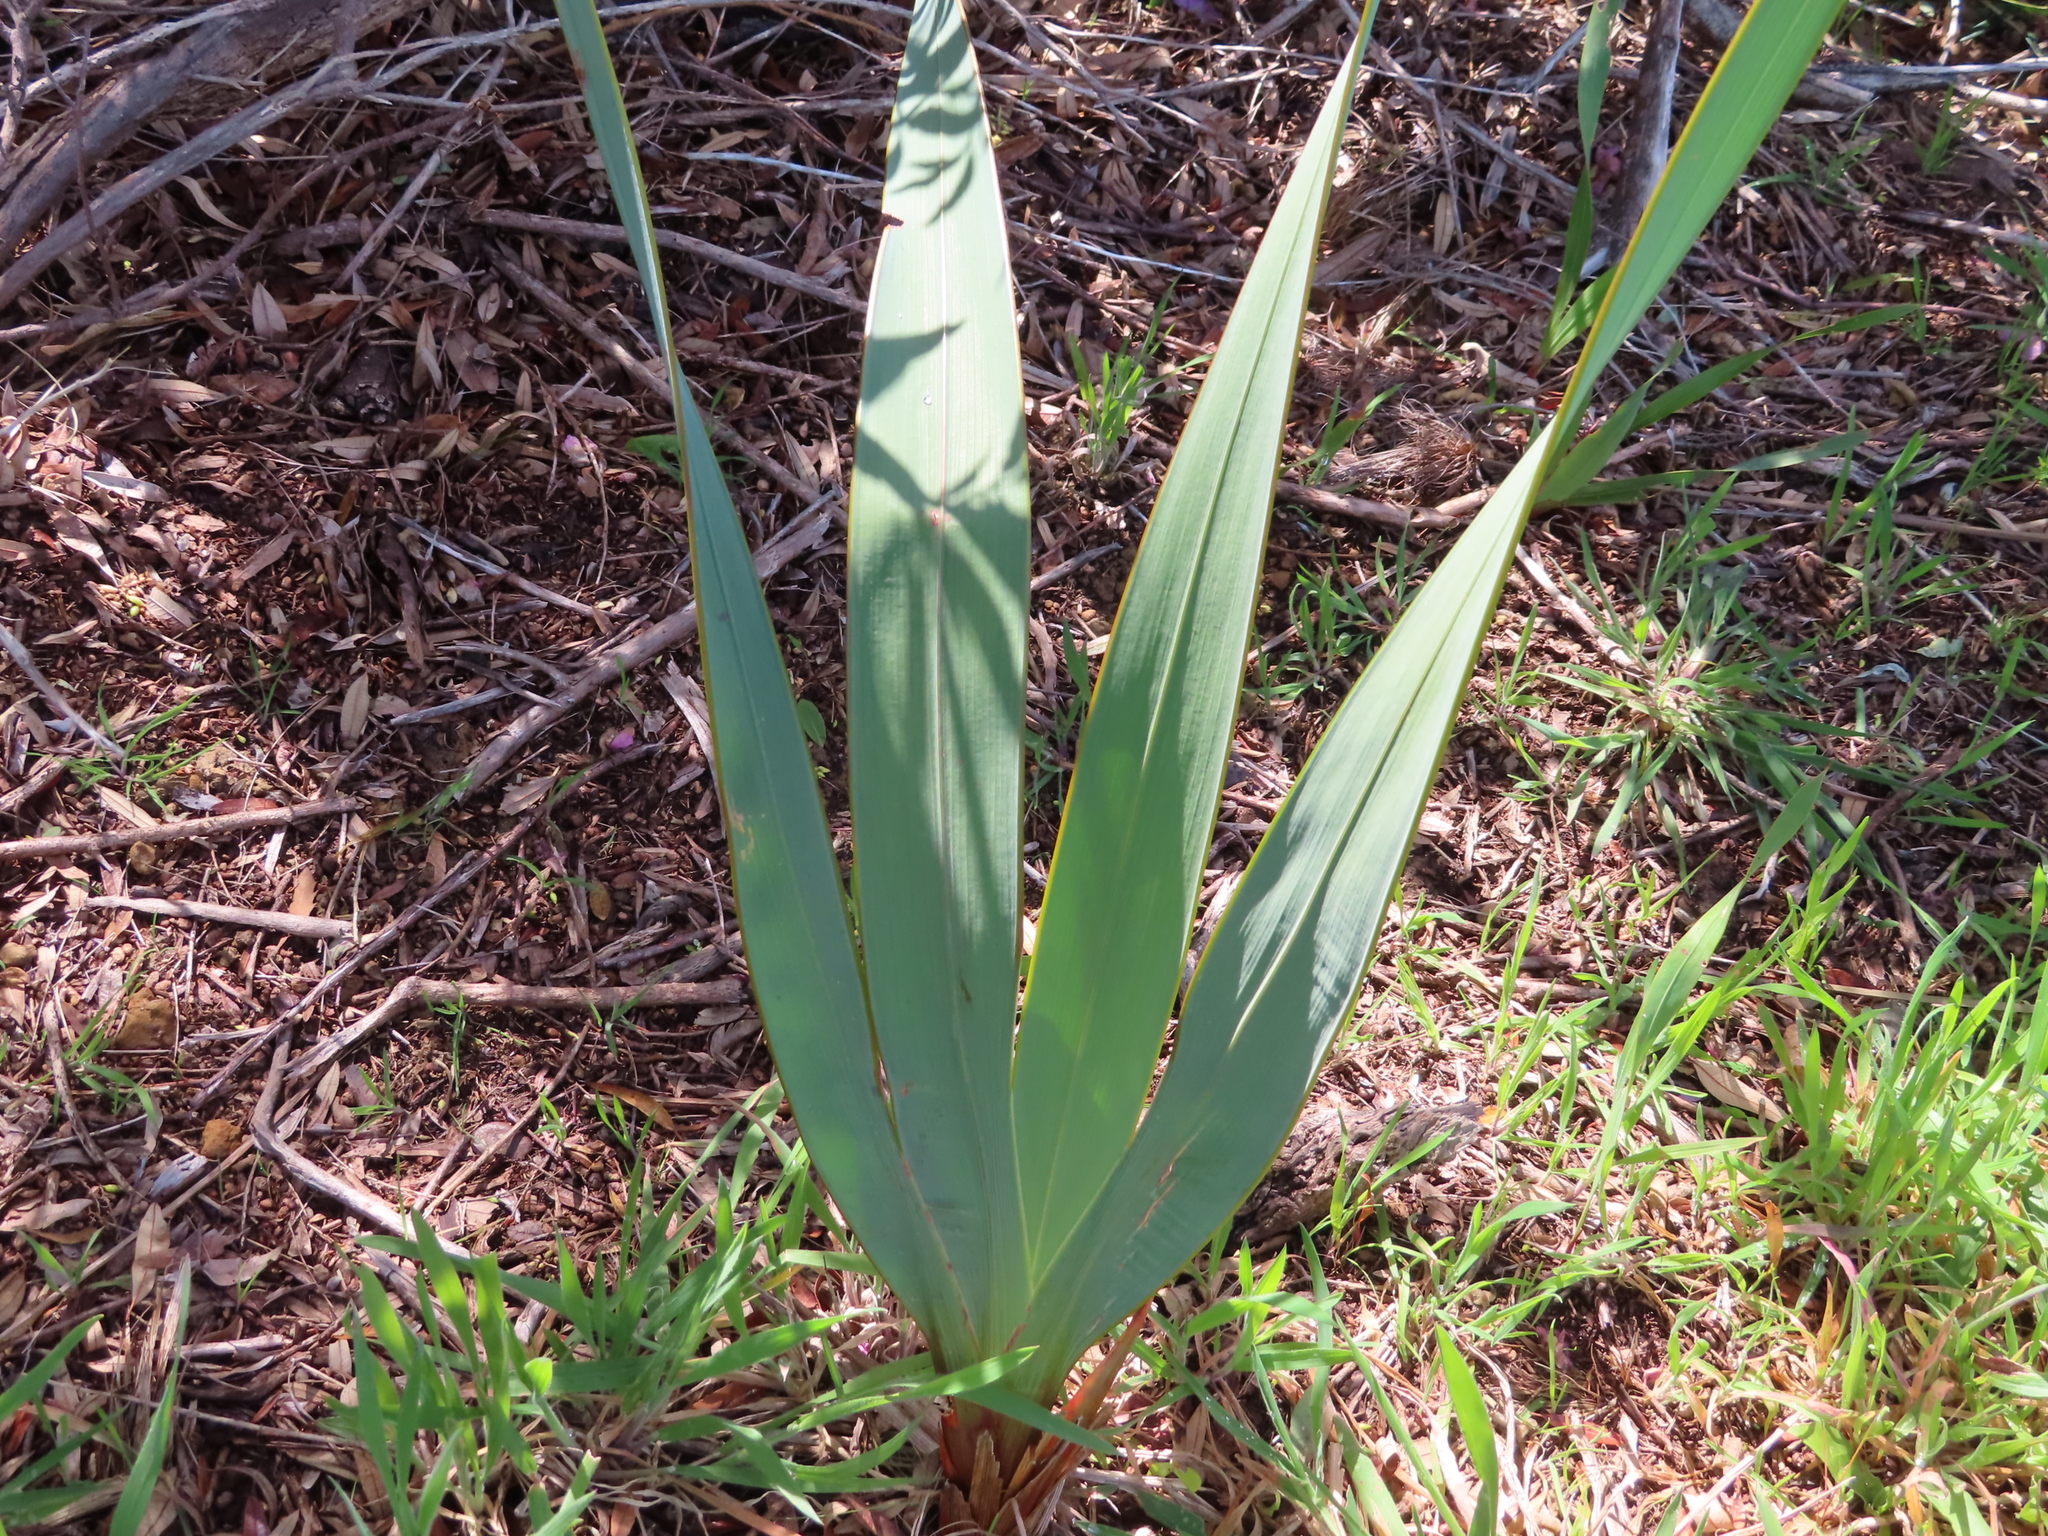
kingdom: Plantae
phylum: Tracheophyta
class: Liliopsida
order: Asparagales
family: Iridaceae
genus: Watsonia
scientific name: Watsonia meriana
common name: Bulbil bugle-lily
